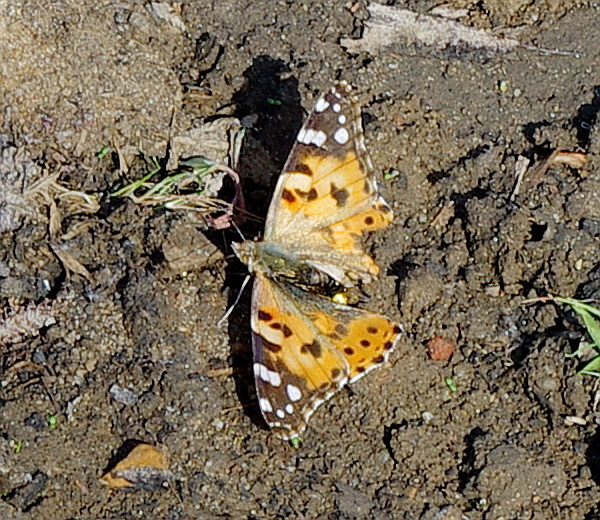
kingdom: Animalia
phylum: Arthropoda
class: Insecta
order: Lepidoptera
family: Nymphalidae
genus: Vanessa
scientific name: Vanessa cardui
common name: Painted lady
